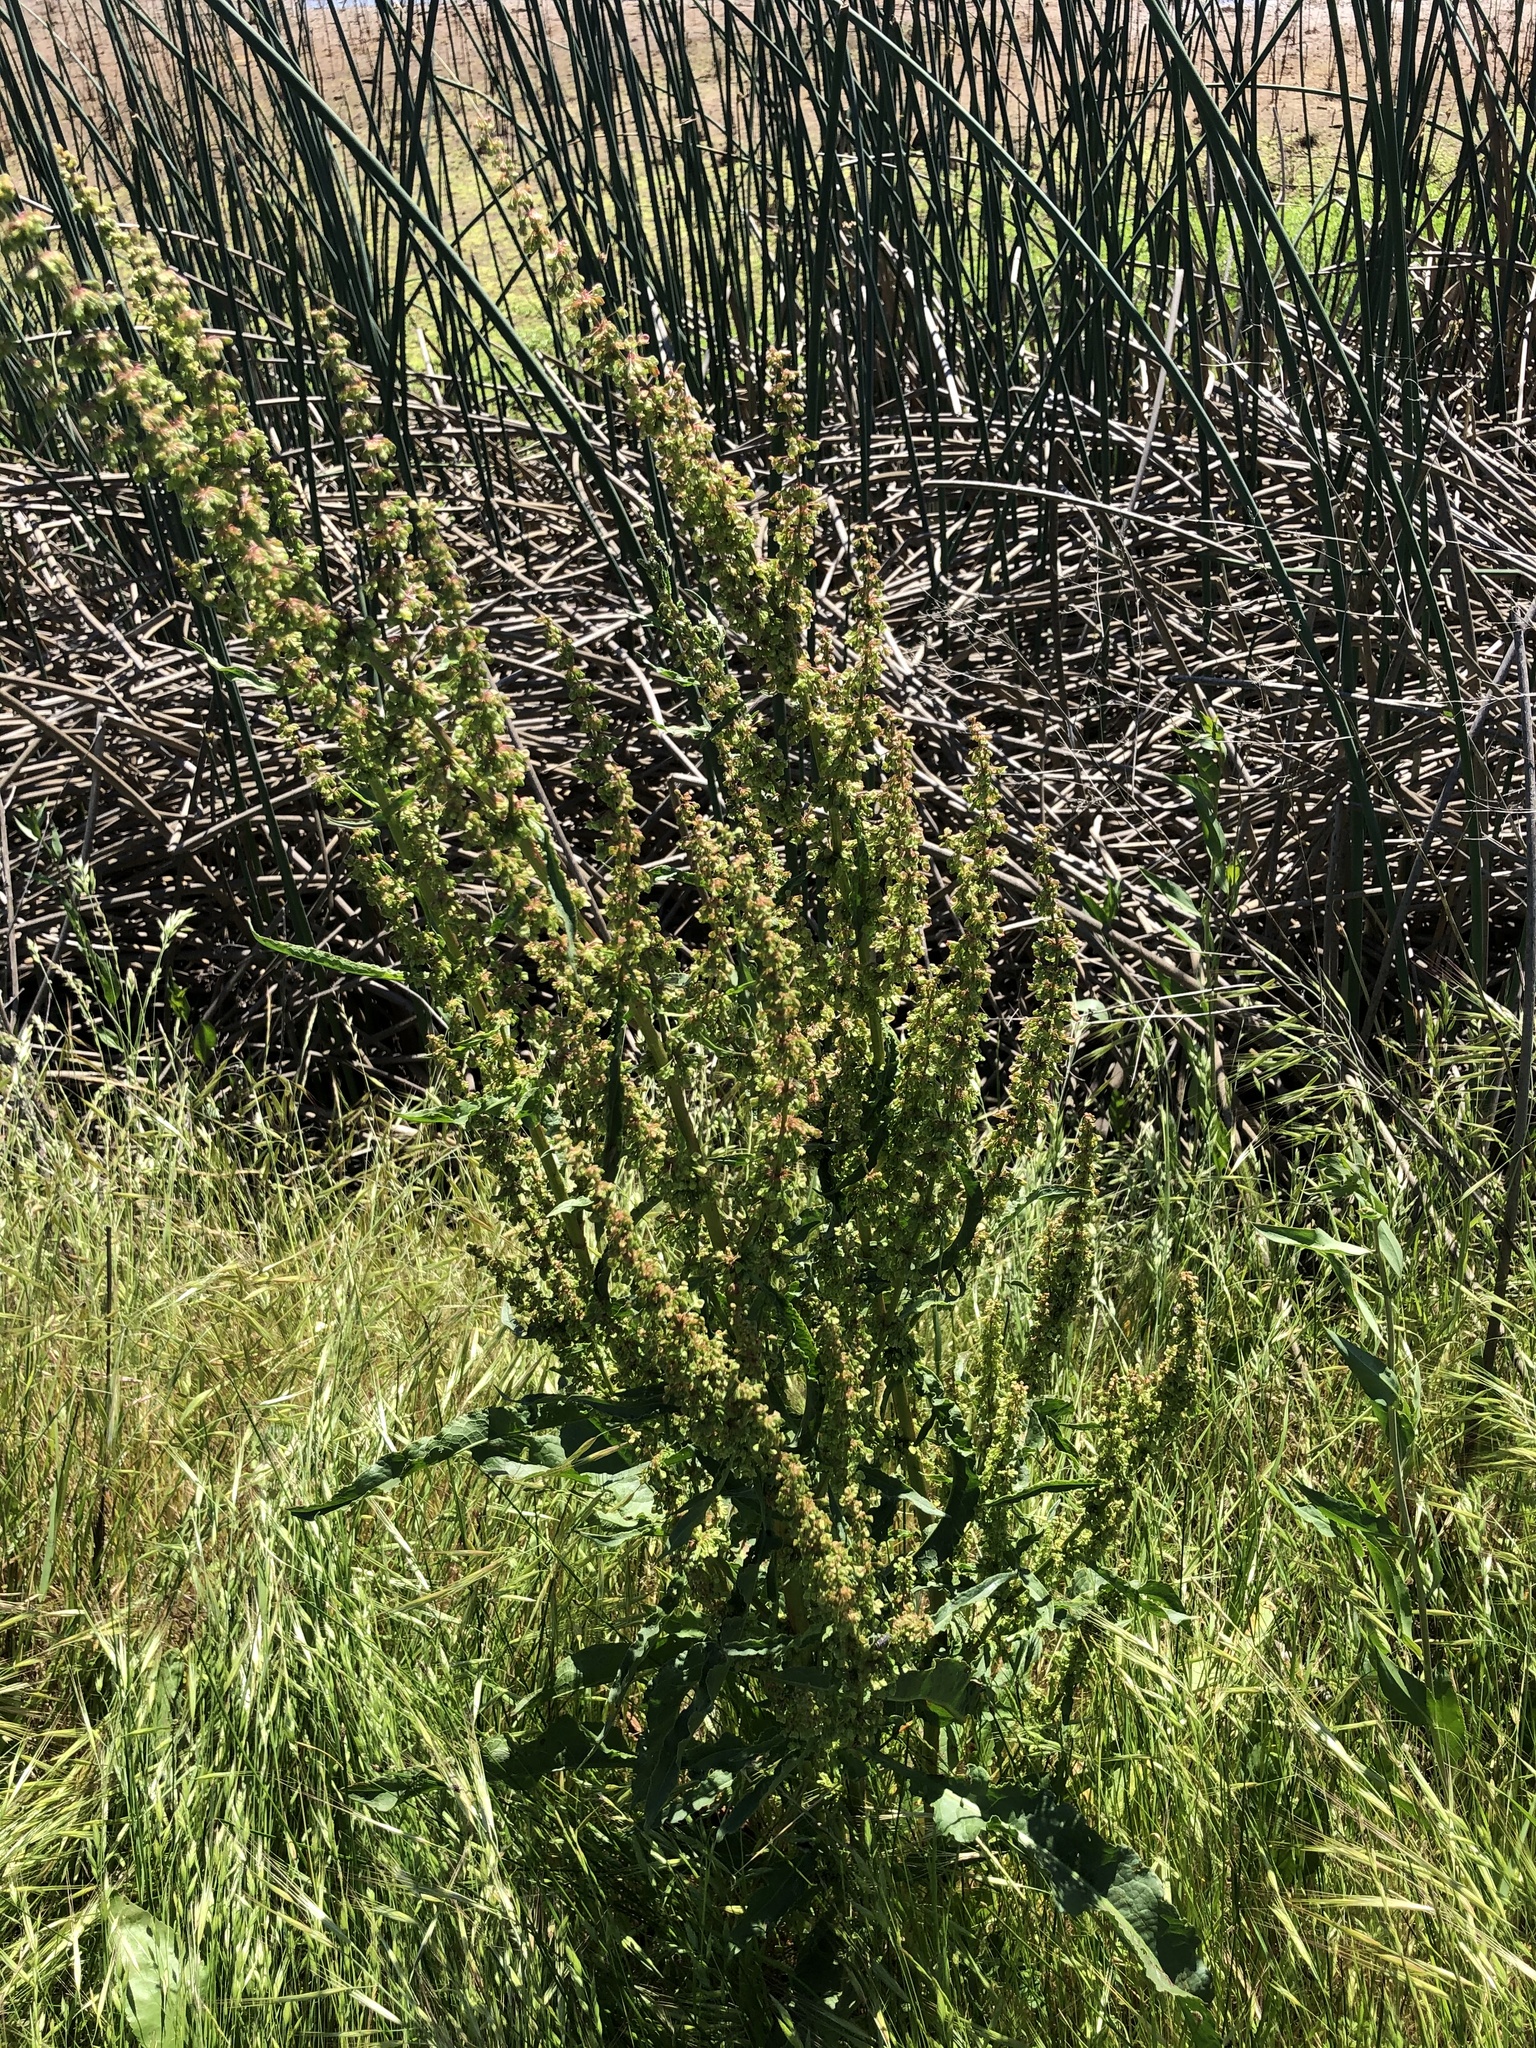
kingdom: Plantae
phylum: Tracheophyta
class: Magnoliopsida
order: Caryophyllales
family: Polygonaceae
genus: Rumex
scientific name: Rumex crispus
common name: Curled dock
